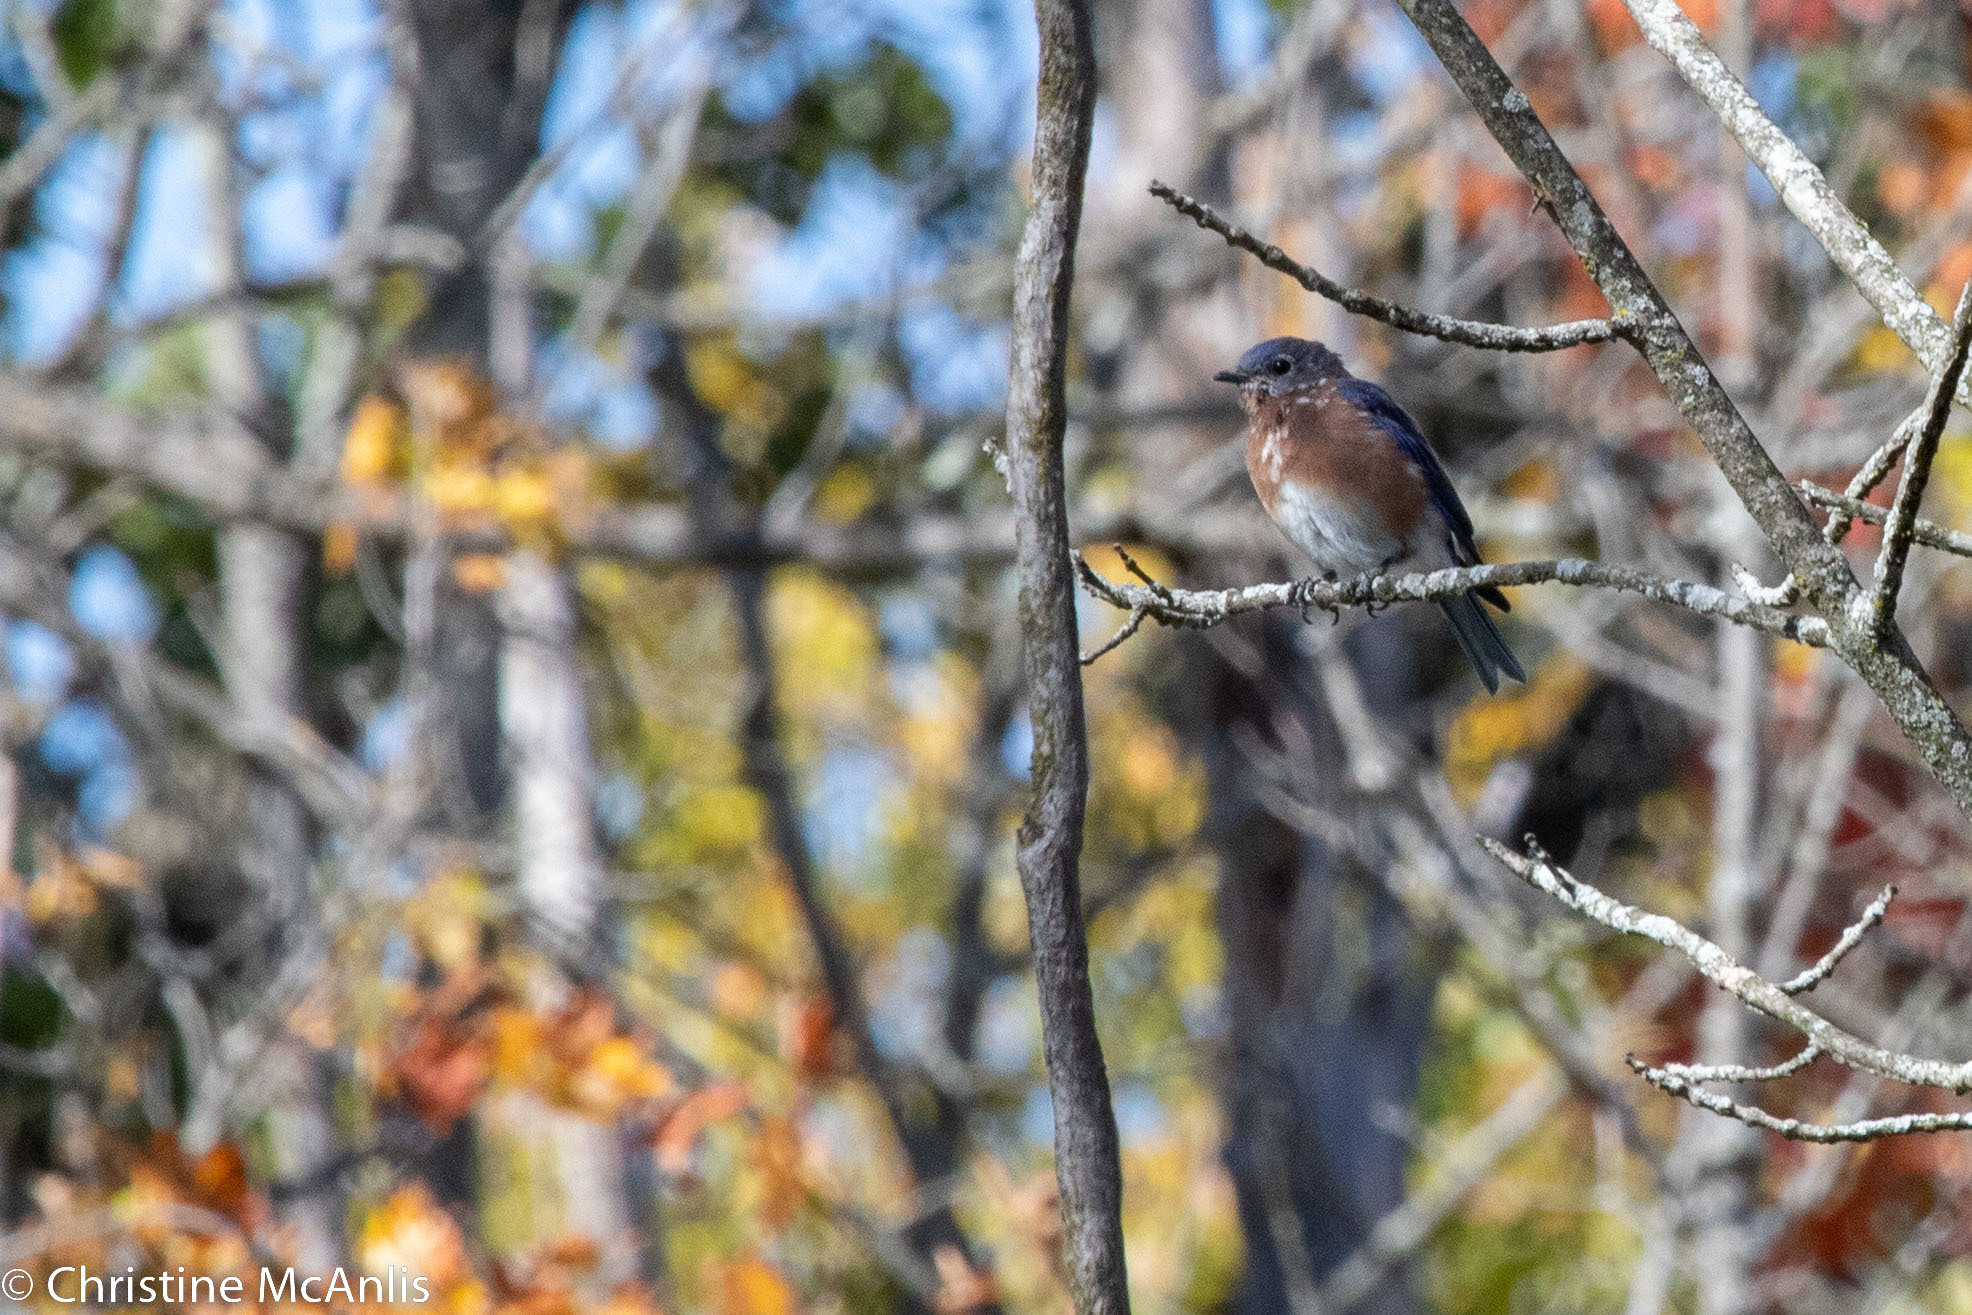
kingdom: Animalia
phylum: Chordata
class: Aves
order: Passeriformes
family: Turdidae
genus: Sialia
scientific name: Sialia sialis
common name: Eastern bluebird
